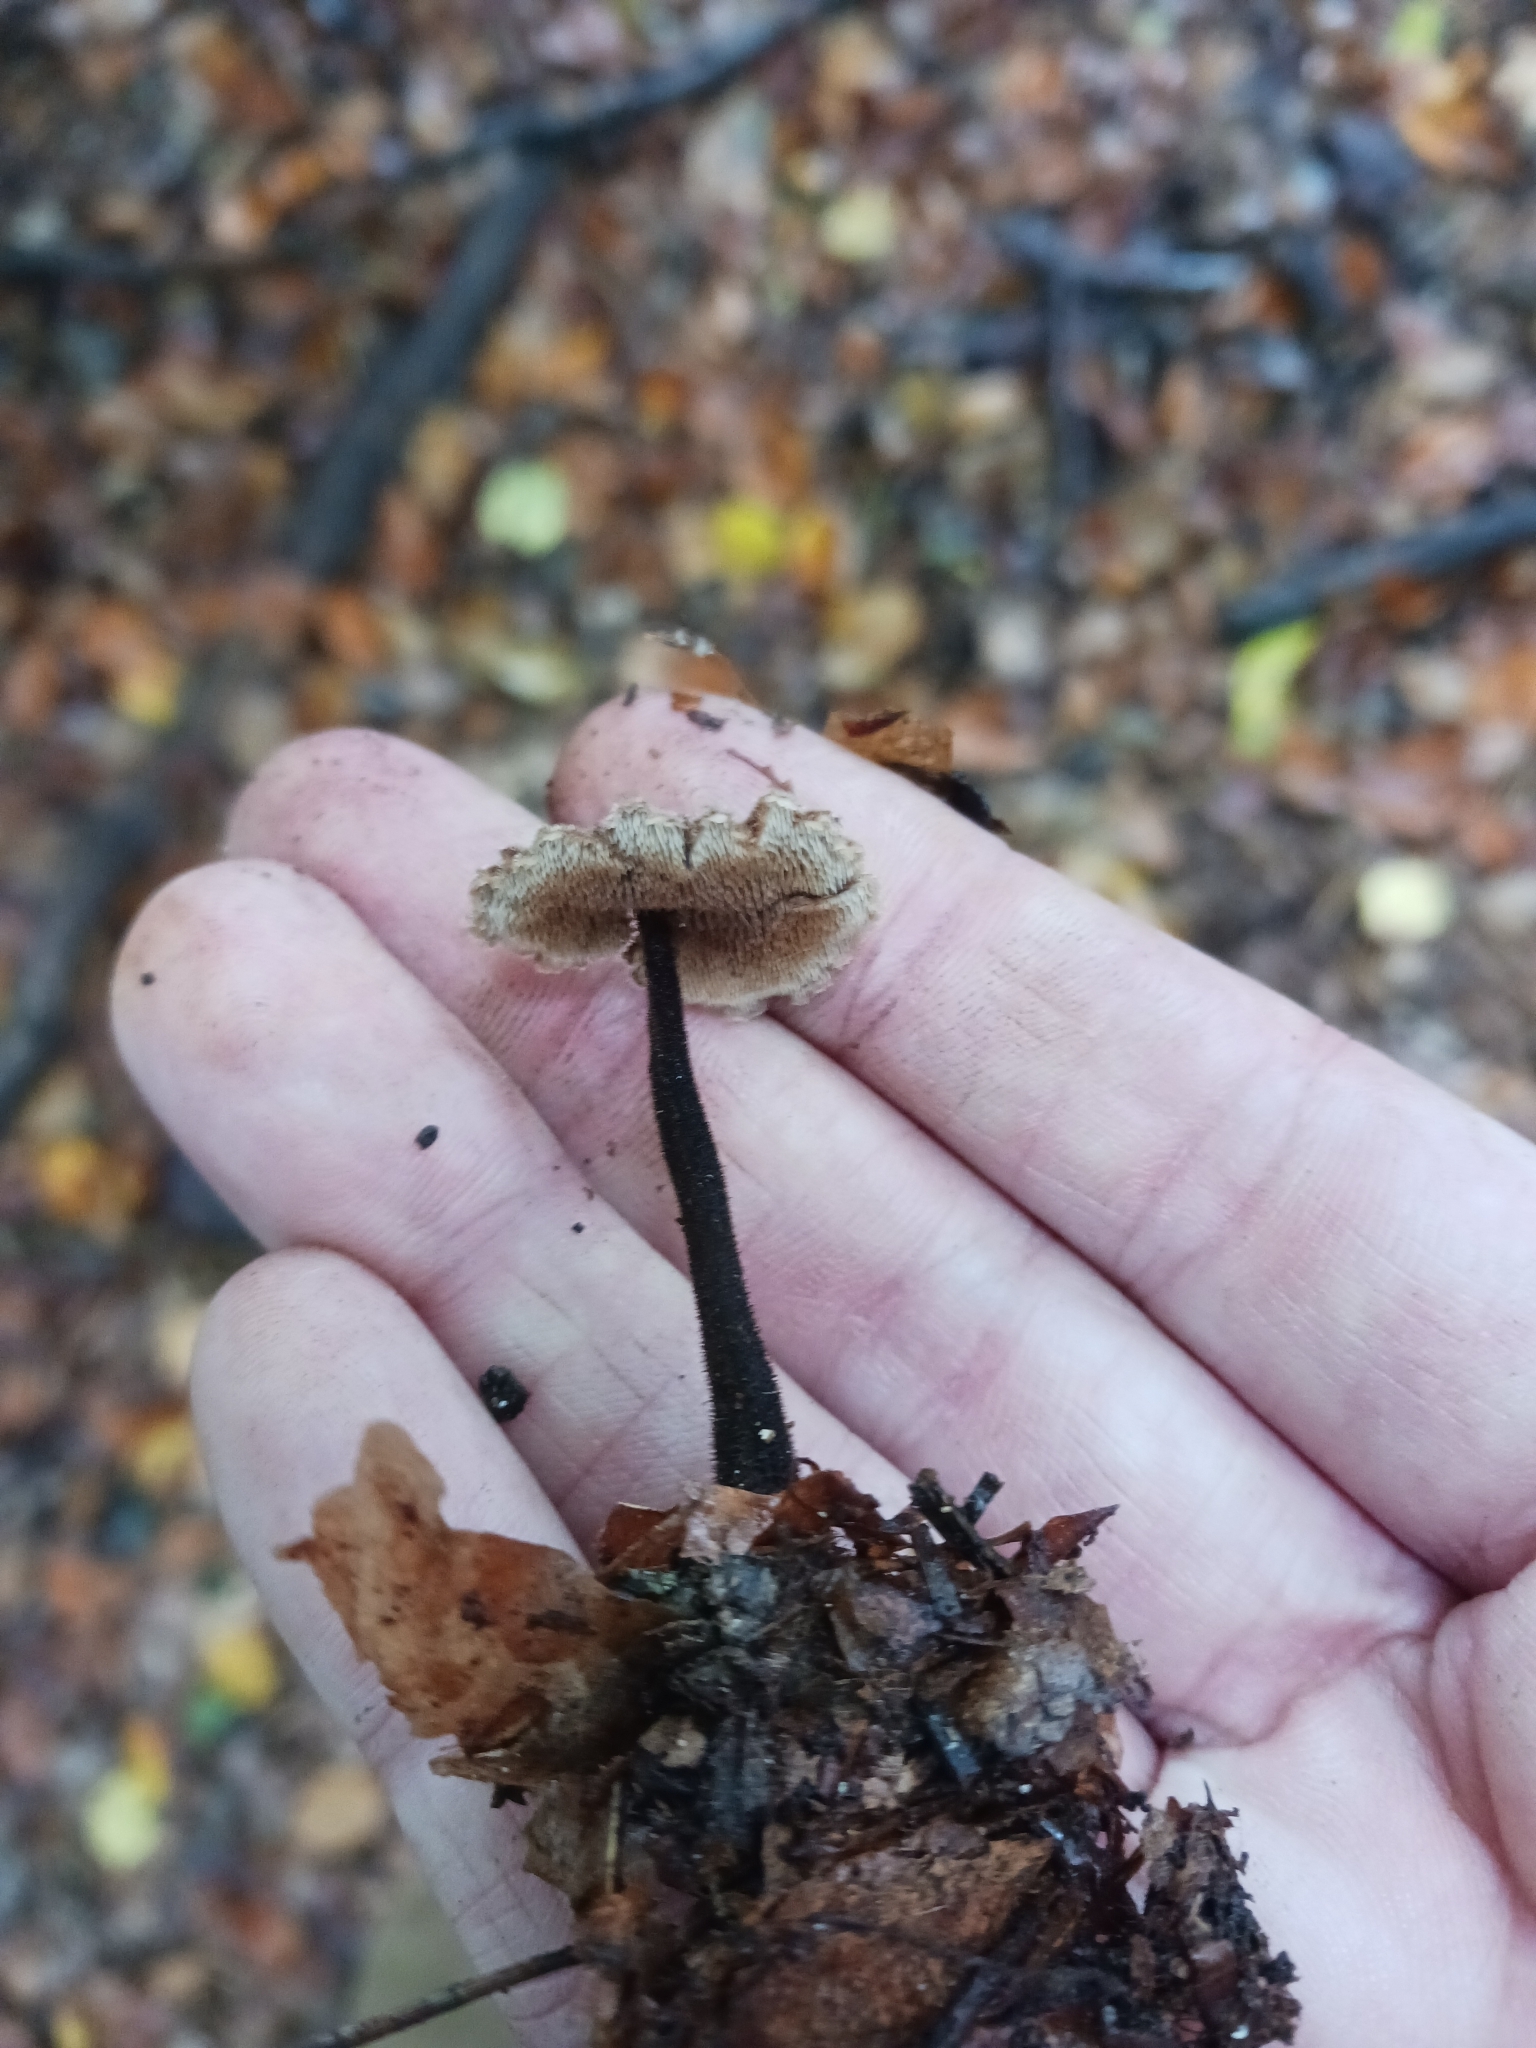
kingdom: Fungi
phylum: Basidiomycota
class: Agaricomycetes
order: Russulales
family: Auriscalpiaceae
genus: Auriscalpium
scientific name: Auriscalpium vulgare
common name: Earpick fungus
